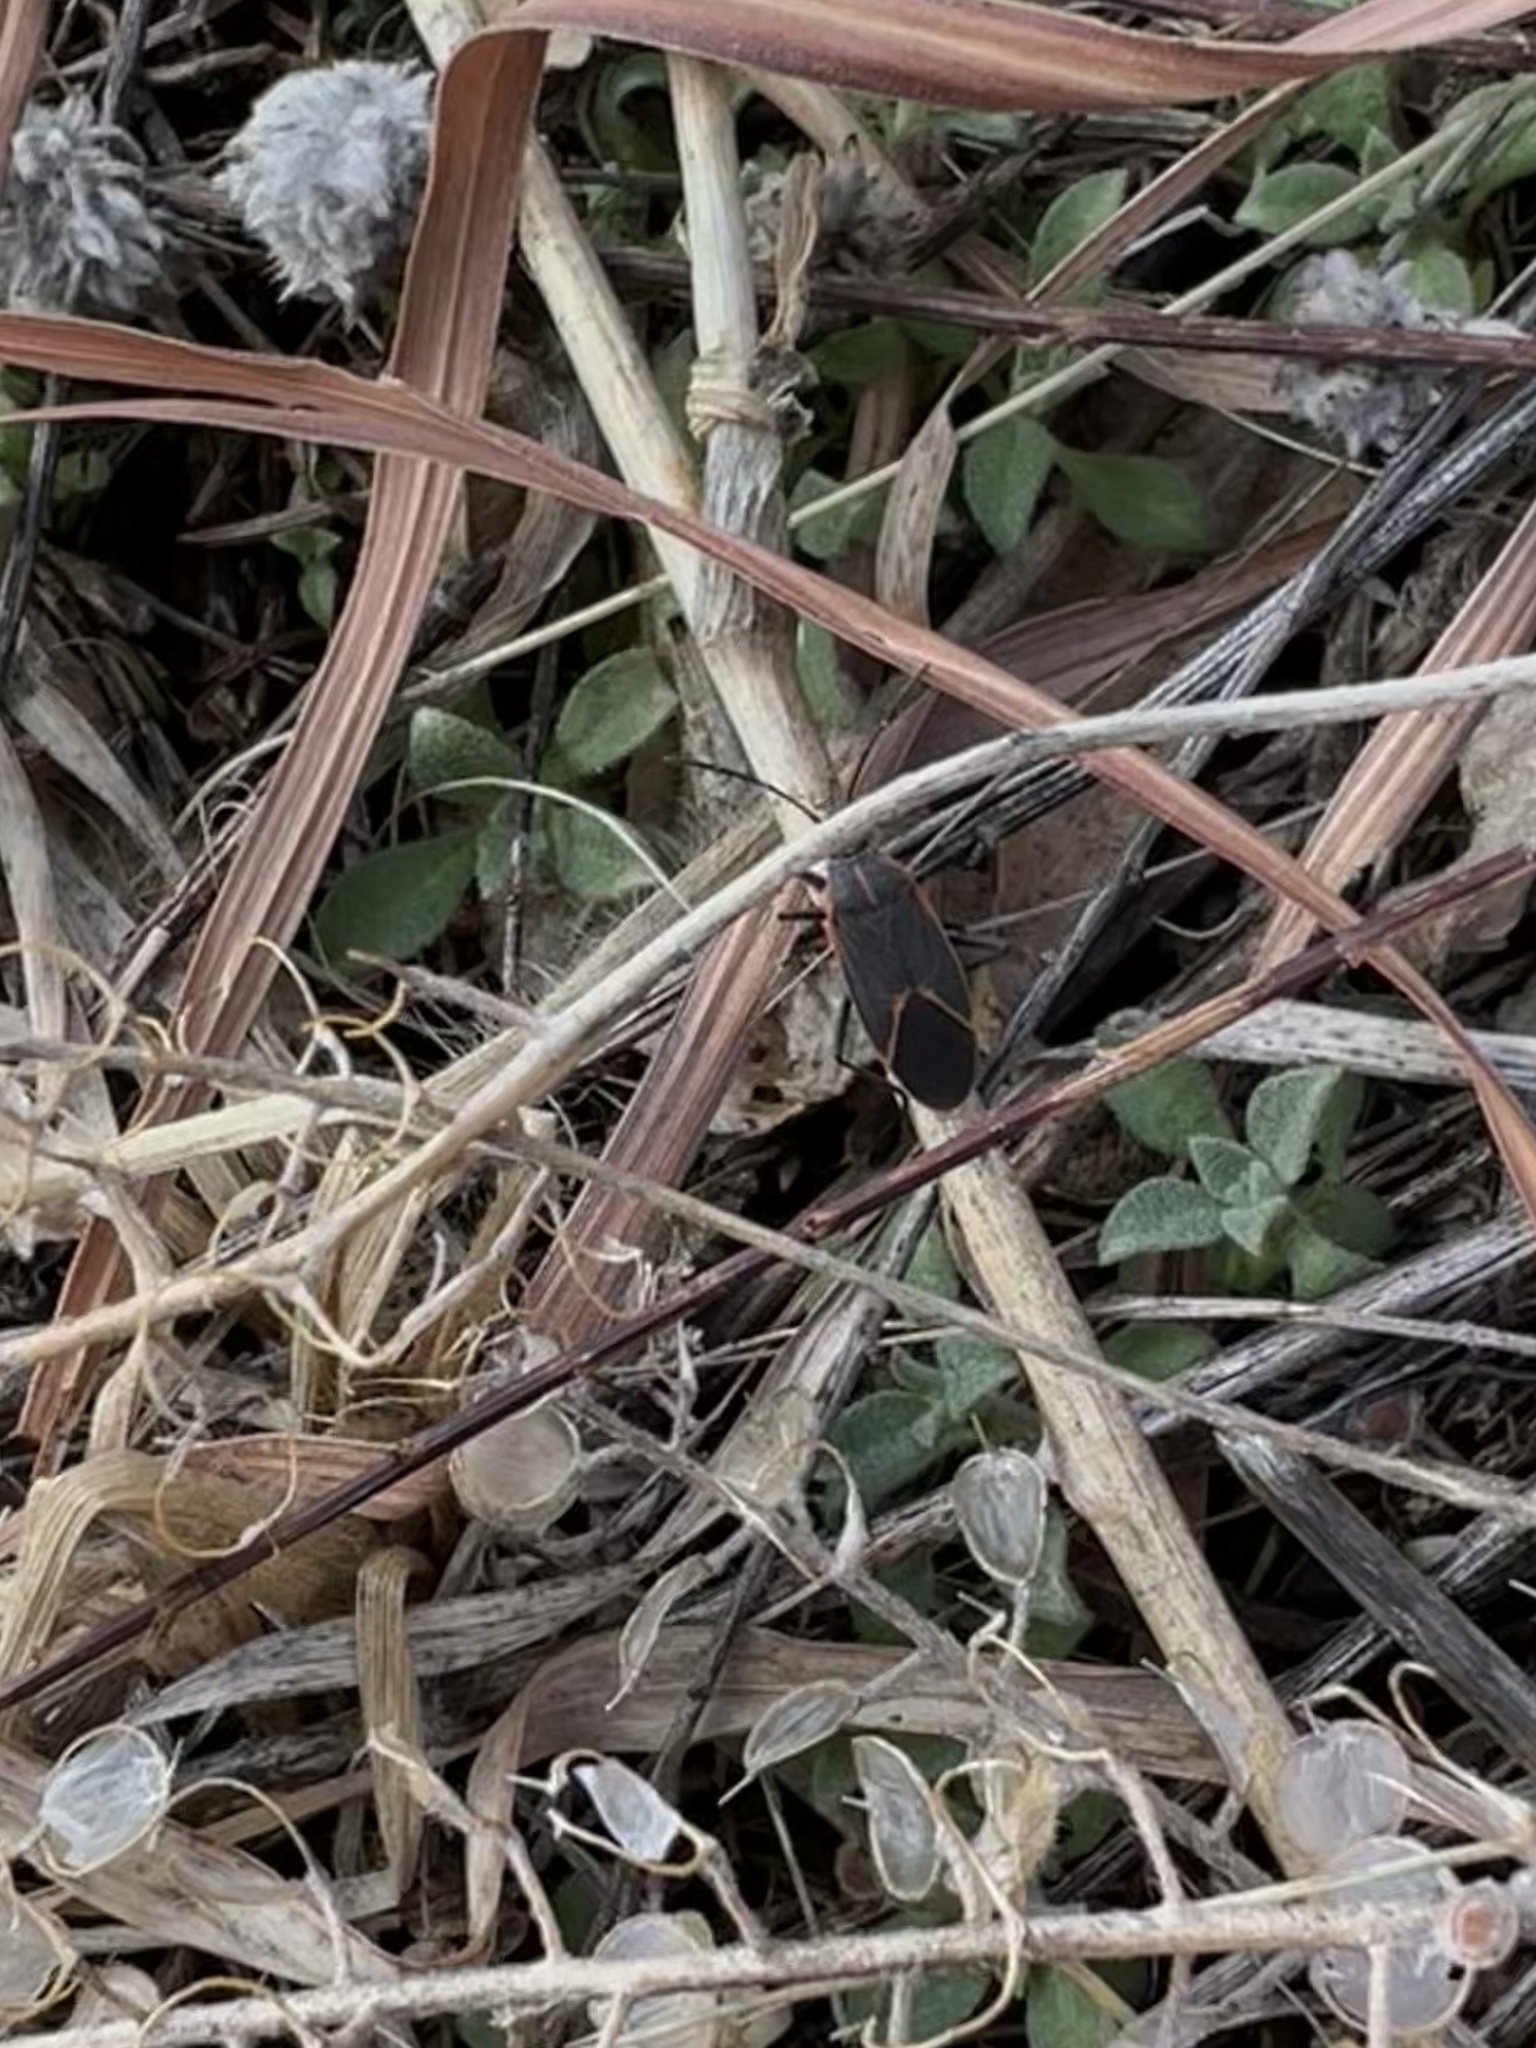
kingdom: Animalia
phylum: Arthropoda
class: Insecta
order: Hemiptera
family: Rhopalidae
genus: Boisea
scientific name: Boisea trivittata
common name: Boxelder bug
